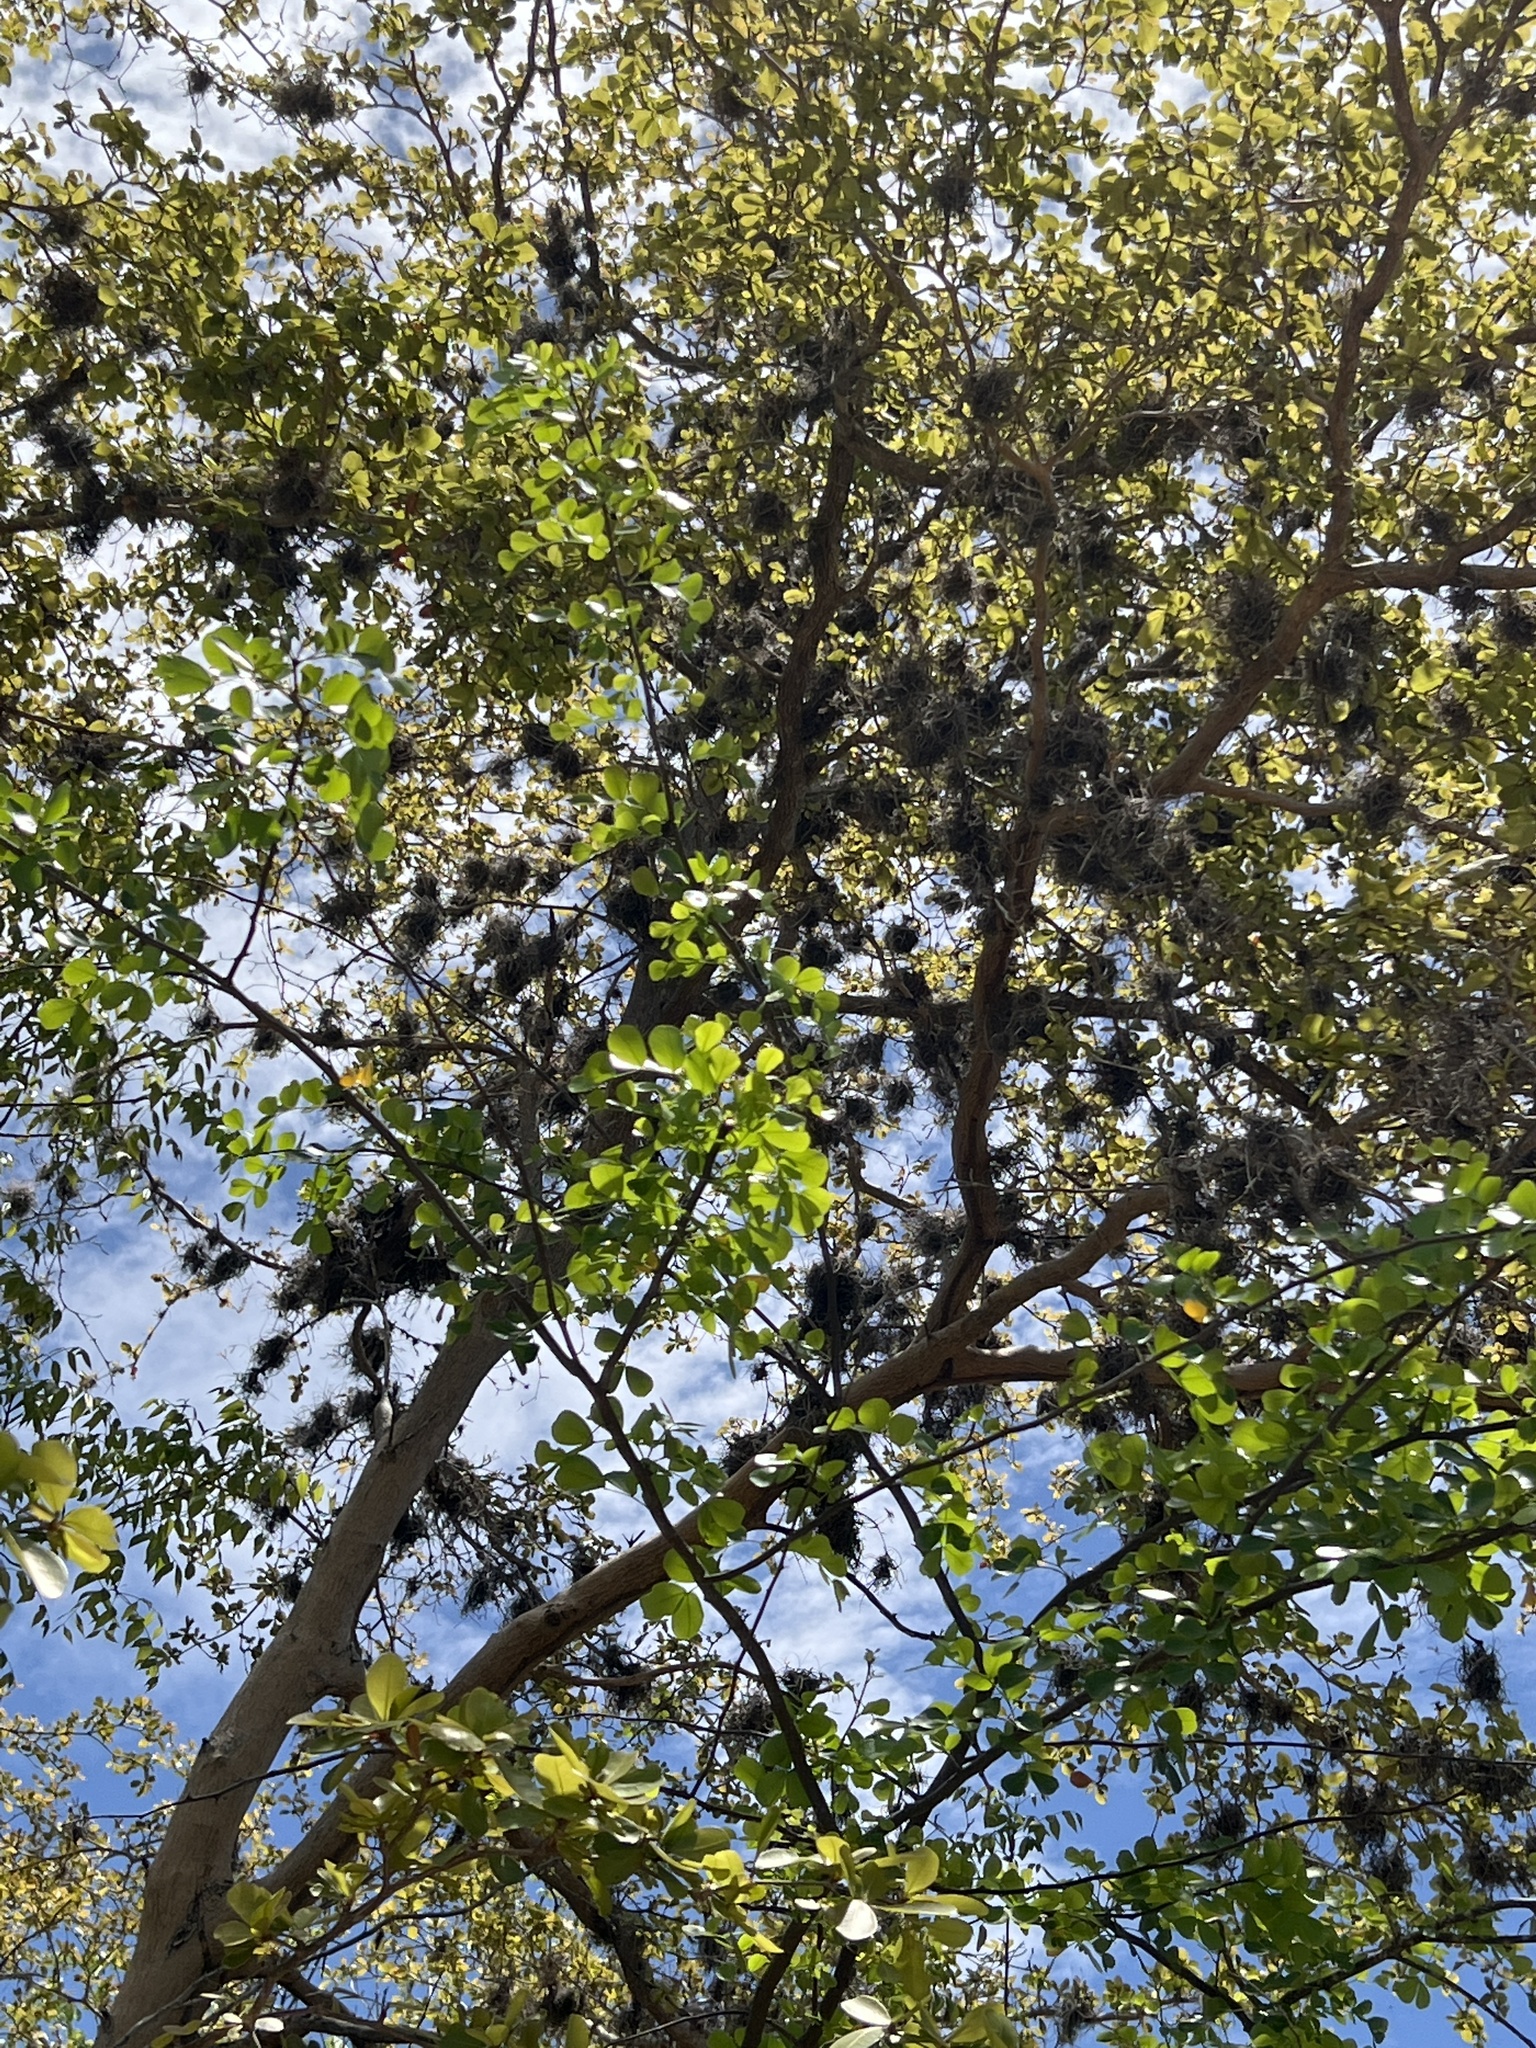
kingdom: Plantae
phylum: Tracheophyta
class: Liliopsida
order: Poales
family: Bromeliaceae
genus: Tillandsia
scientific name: Tillandsia recurvata
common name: Small ballmoss
